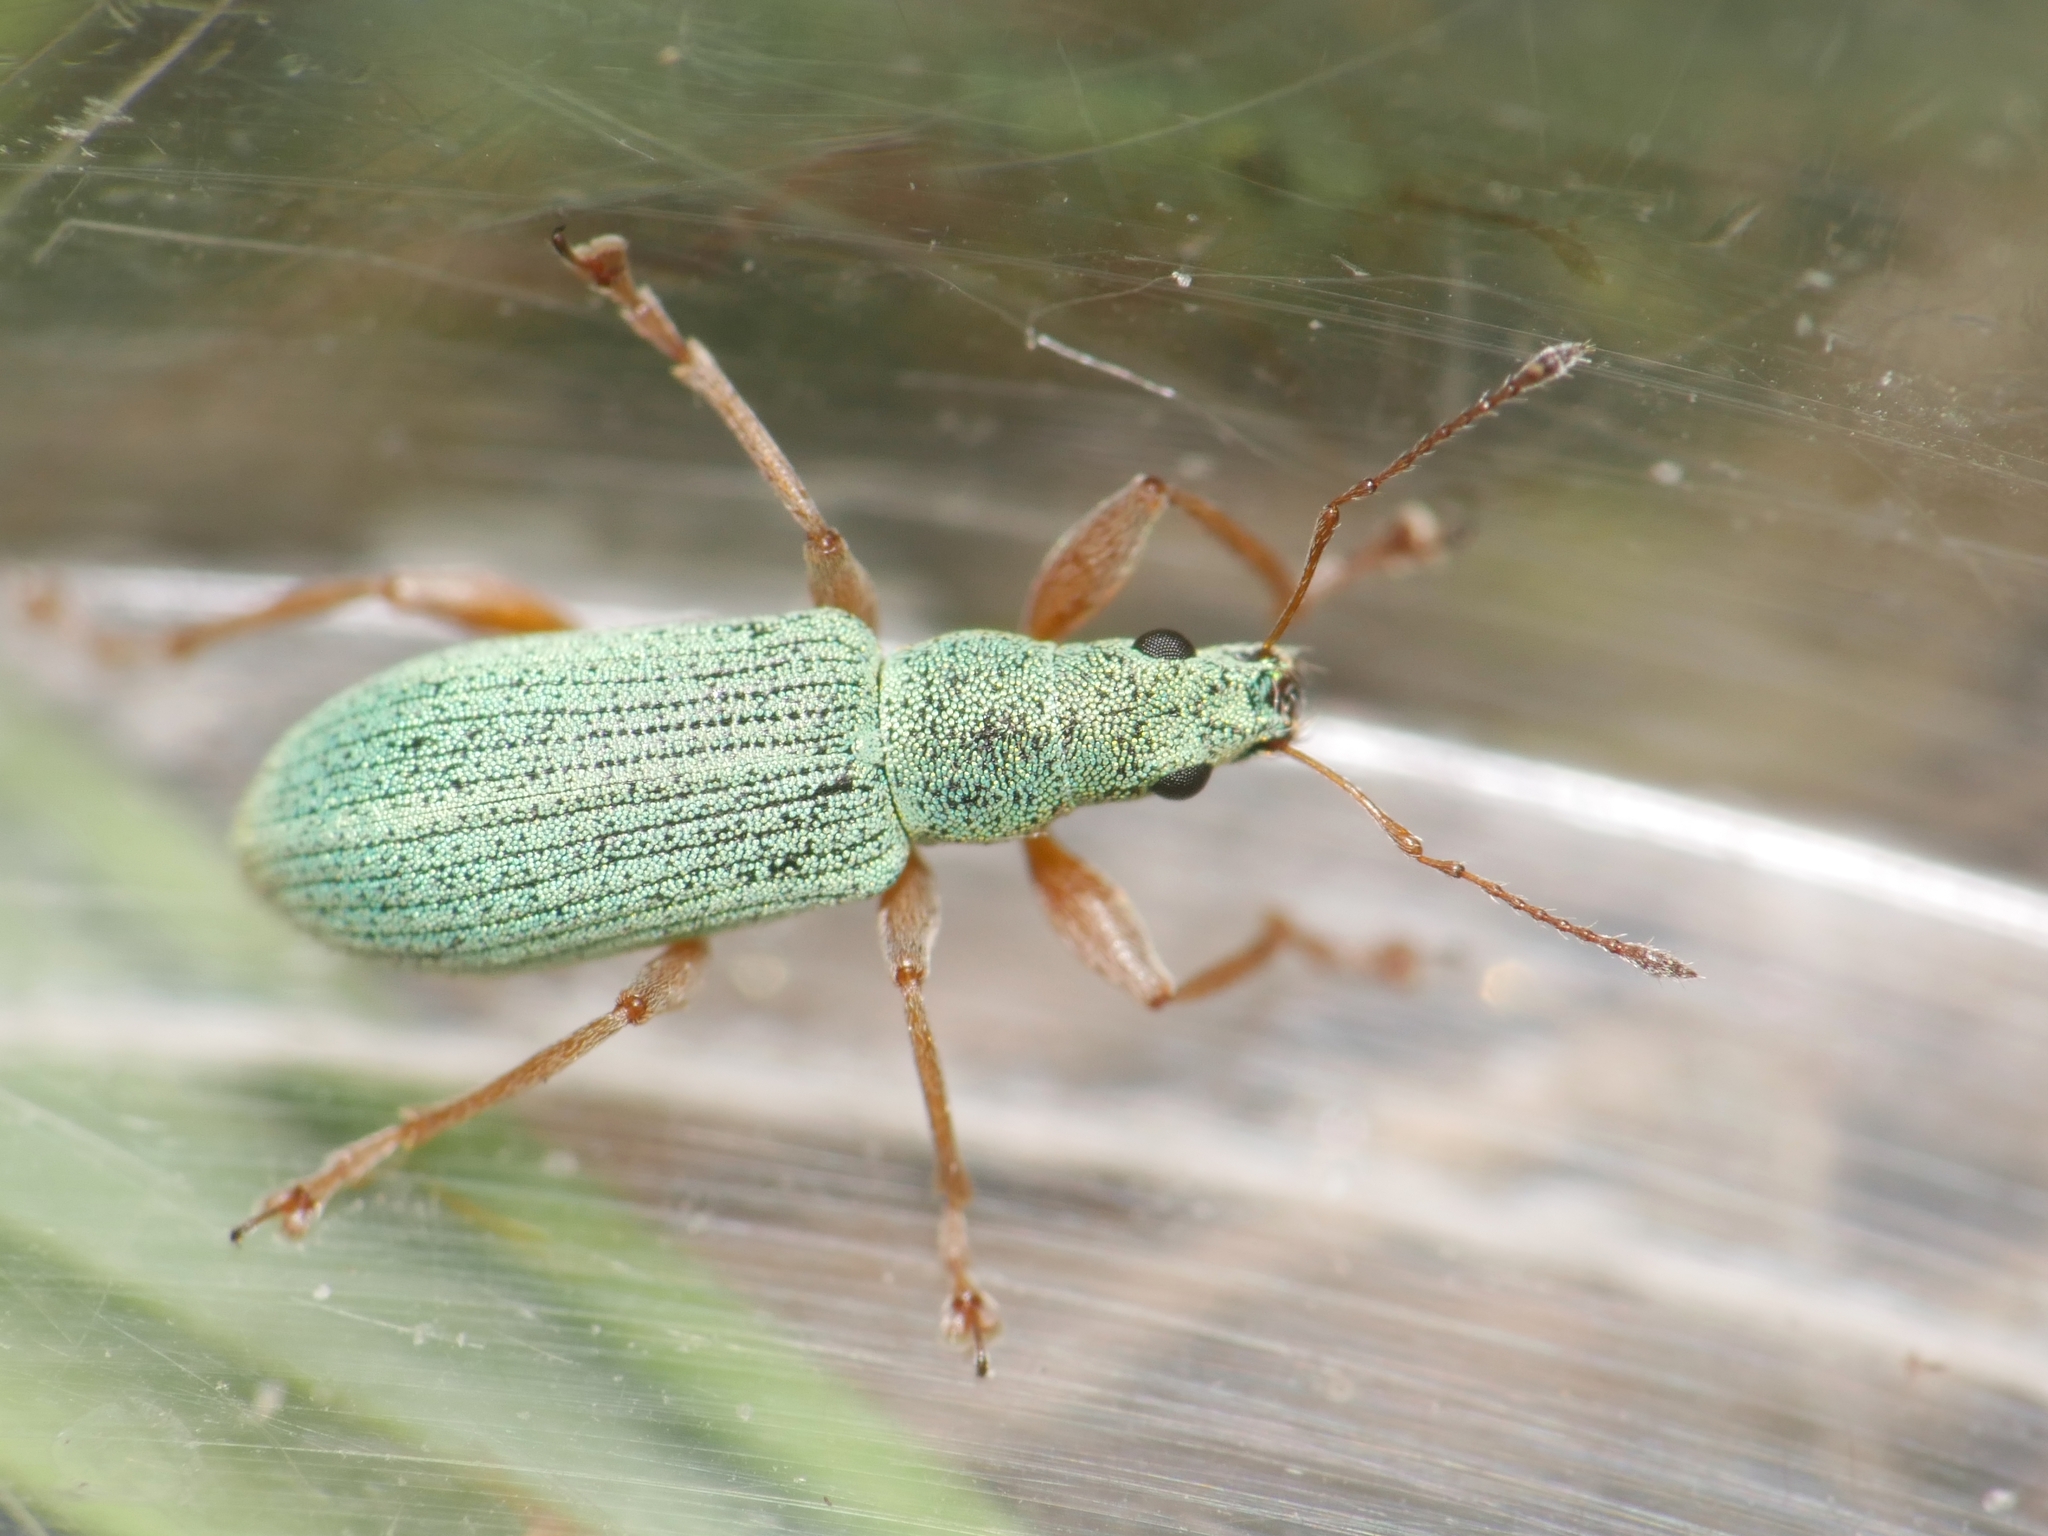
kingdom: Animalia
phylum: Arthropoda
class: Insecta
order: Coleoptera
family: Curculionidae
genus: Polydrusus
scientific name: Polydrusus impressifrons
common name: Weevil
